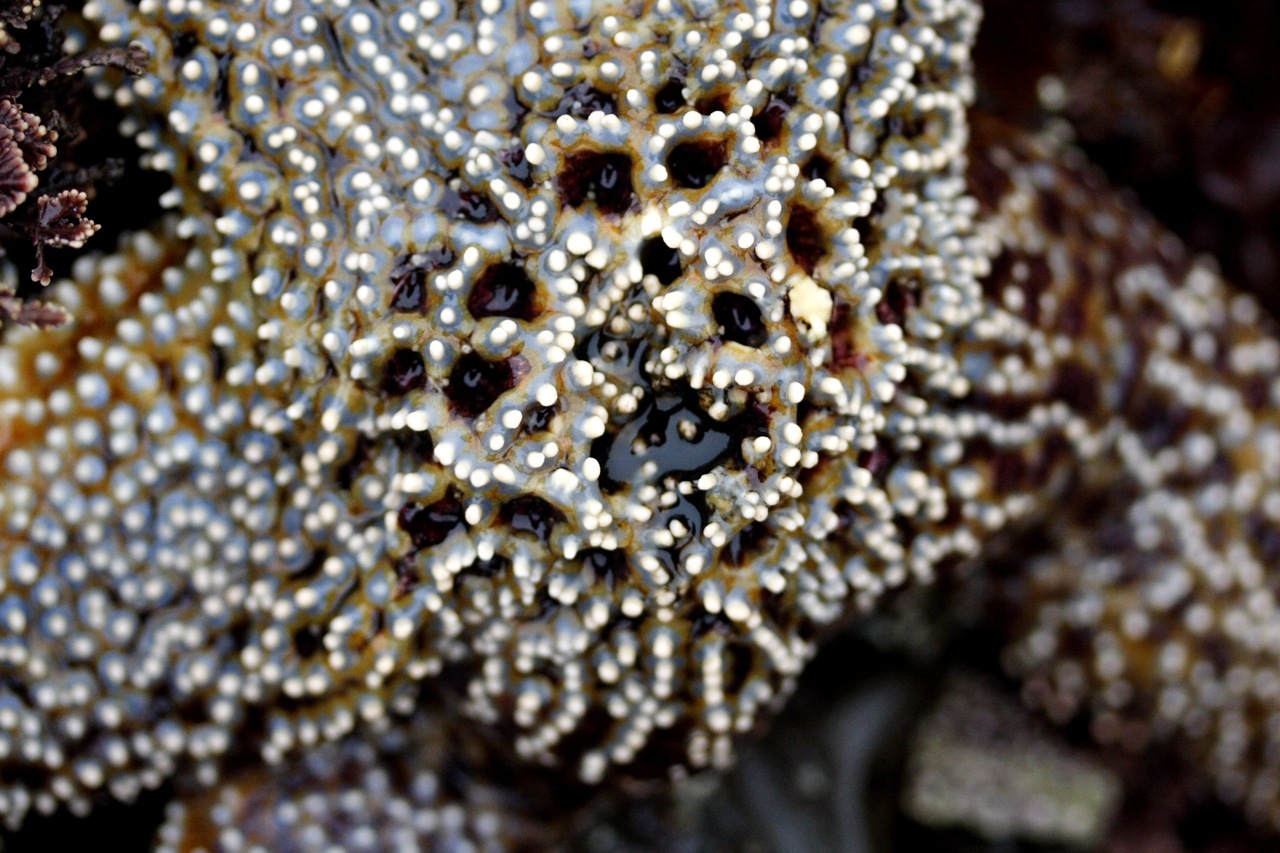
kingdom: Animalia
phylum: Echinodermata
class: Asteroidea
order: Forcipulatida
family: Asteriidae
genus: Pisaster
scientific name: Pisaster giganteus
